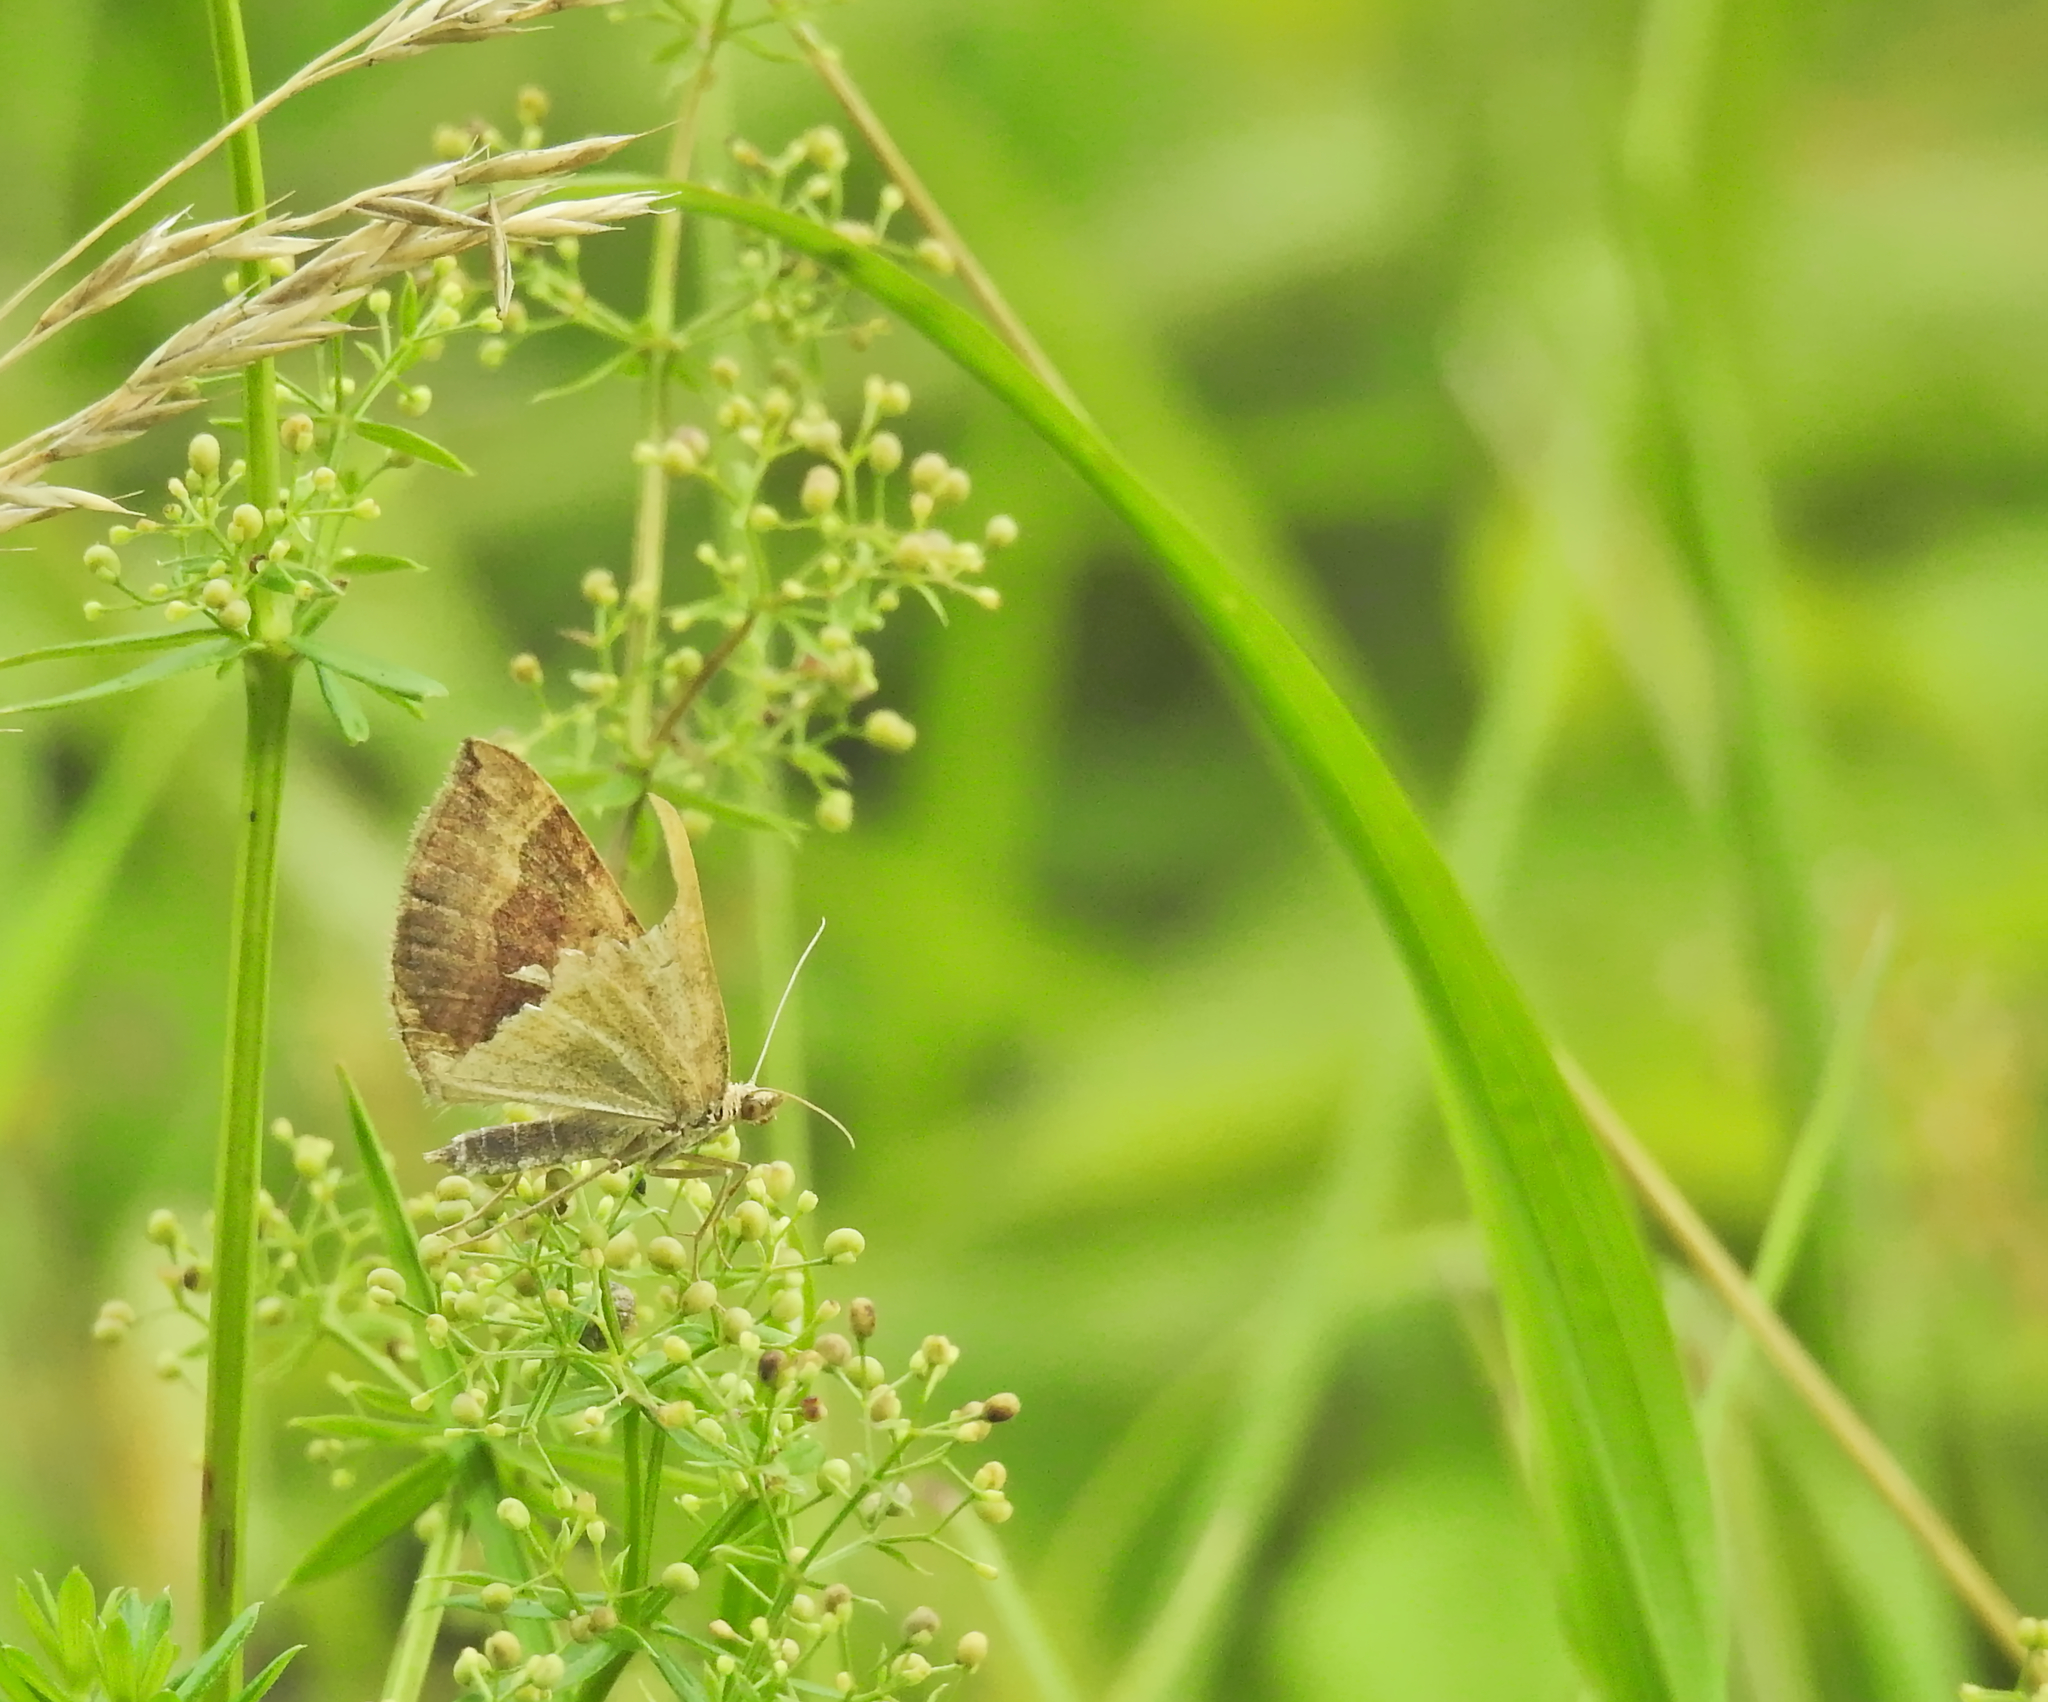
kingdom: Animalia
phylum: Arthropoda
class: Insecta
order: Lepidoptera
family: Geometridae
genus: Scotopteryx
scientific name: Scotopteryx chenopodiata
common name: Shaded broad-bar
